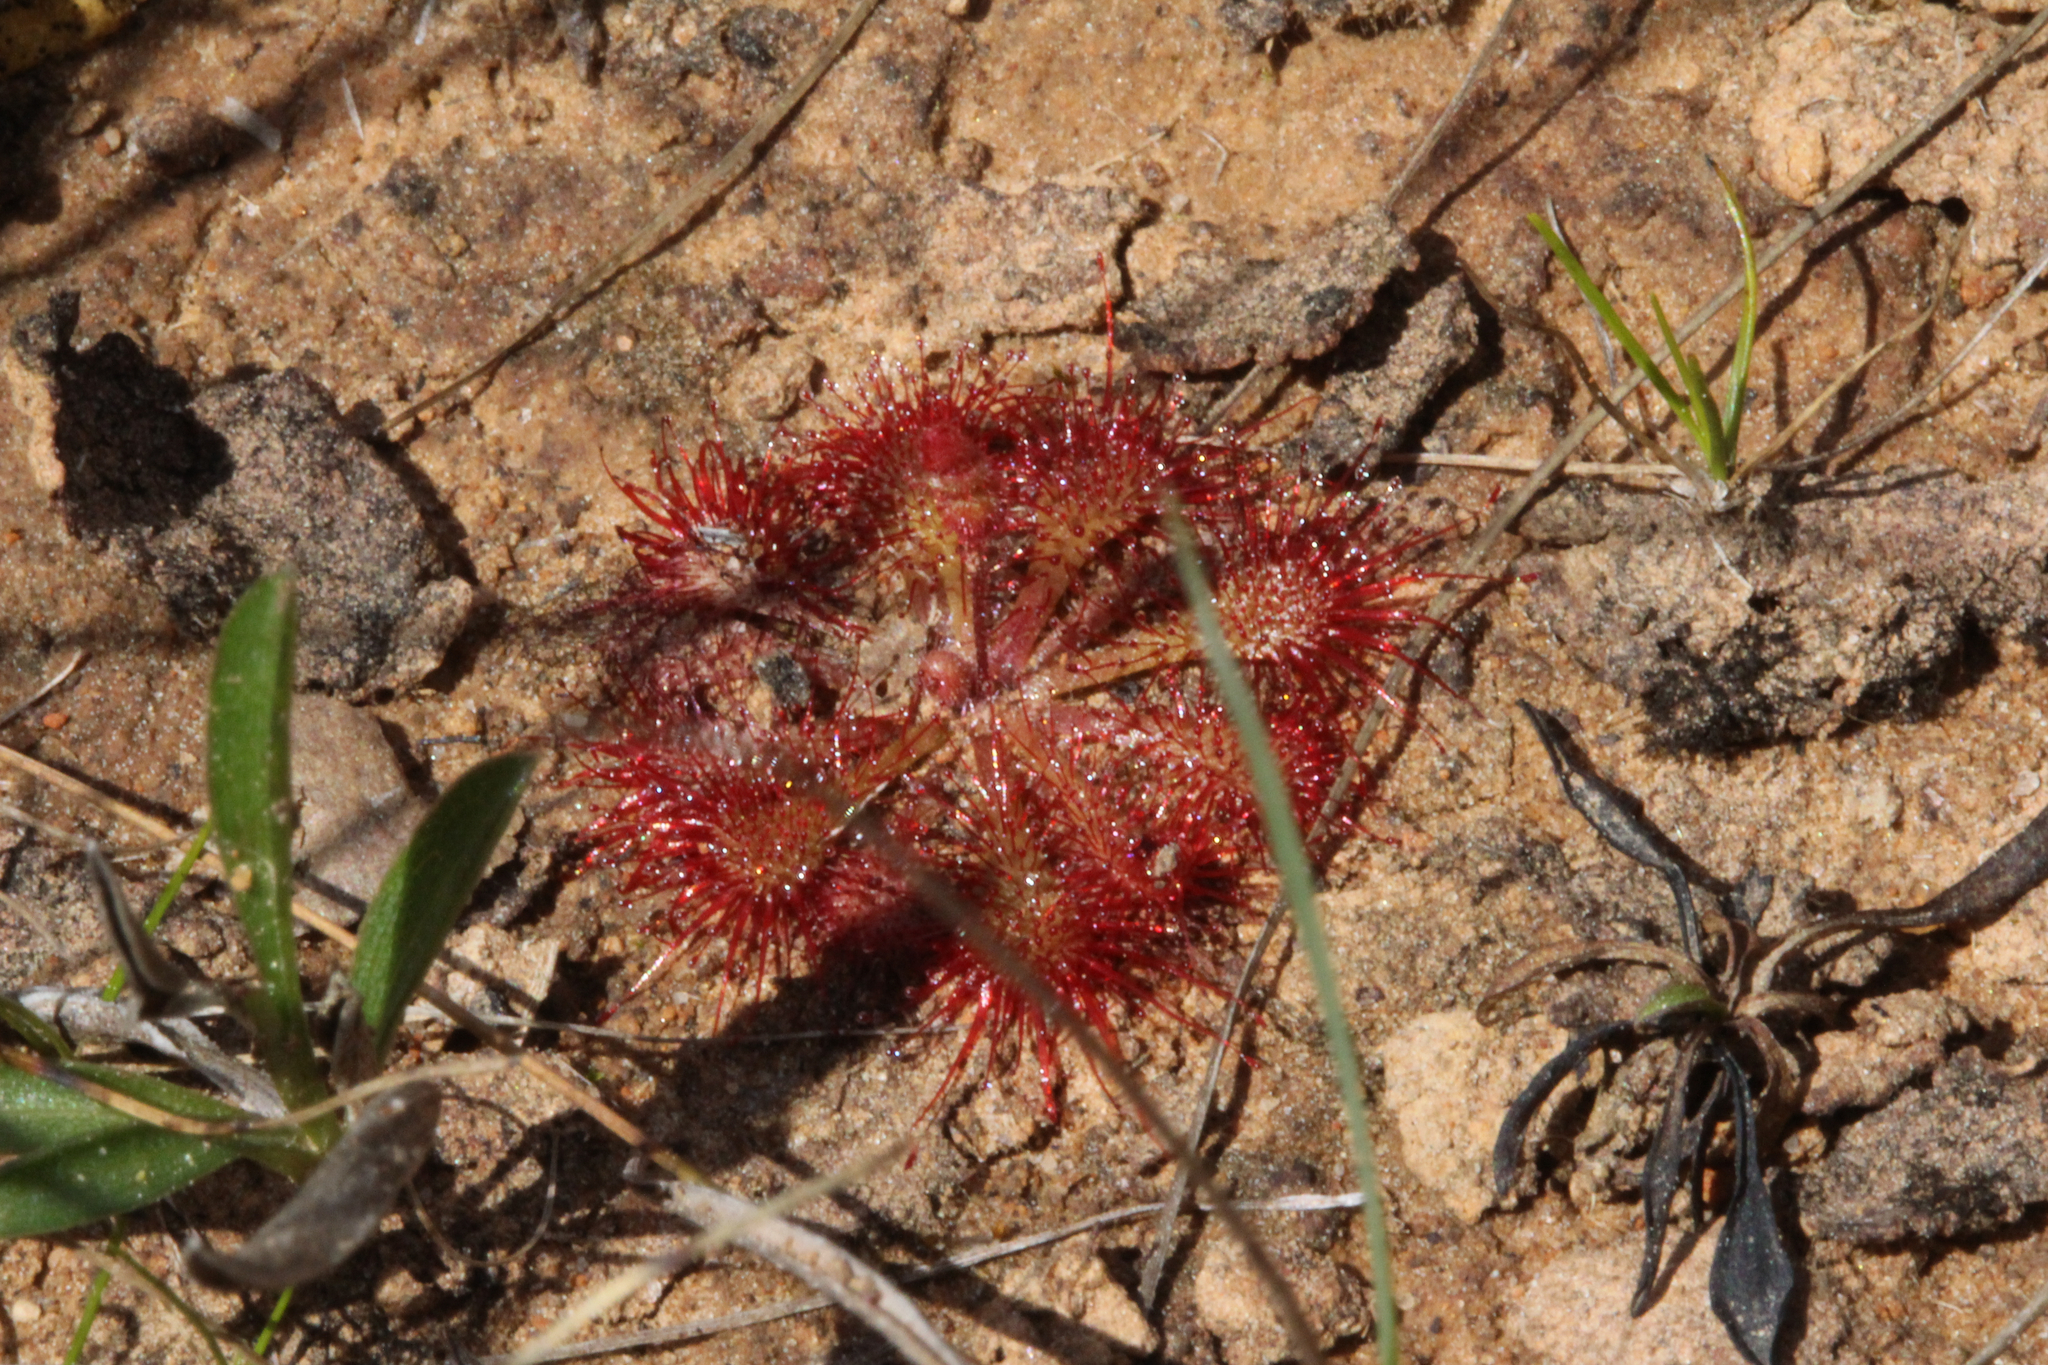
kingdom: Plantae
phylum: Tracheophyta
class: Magnoliopsida
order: Caryophyllales
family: Droseraceae
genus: Drosera
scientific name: Drosera brevifolia
